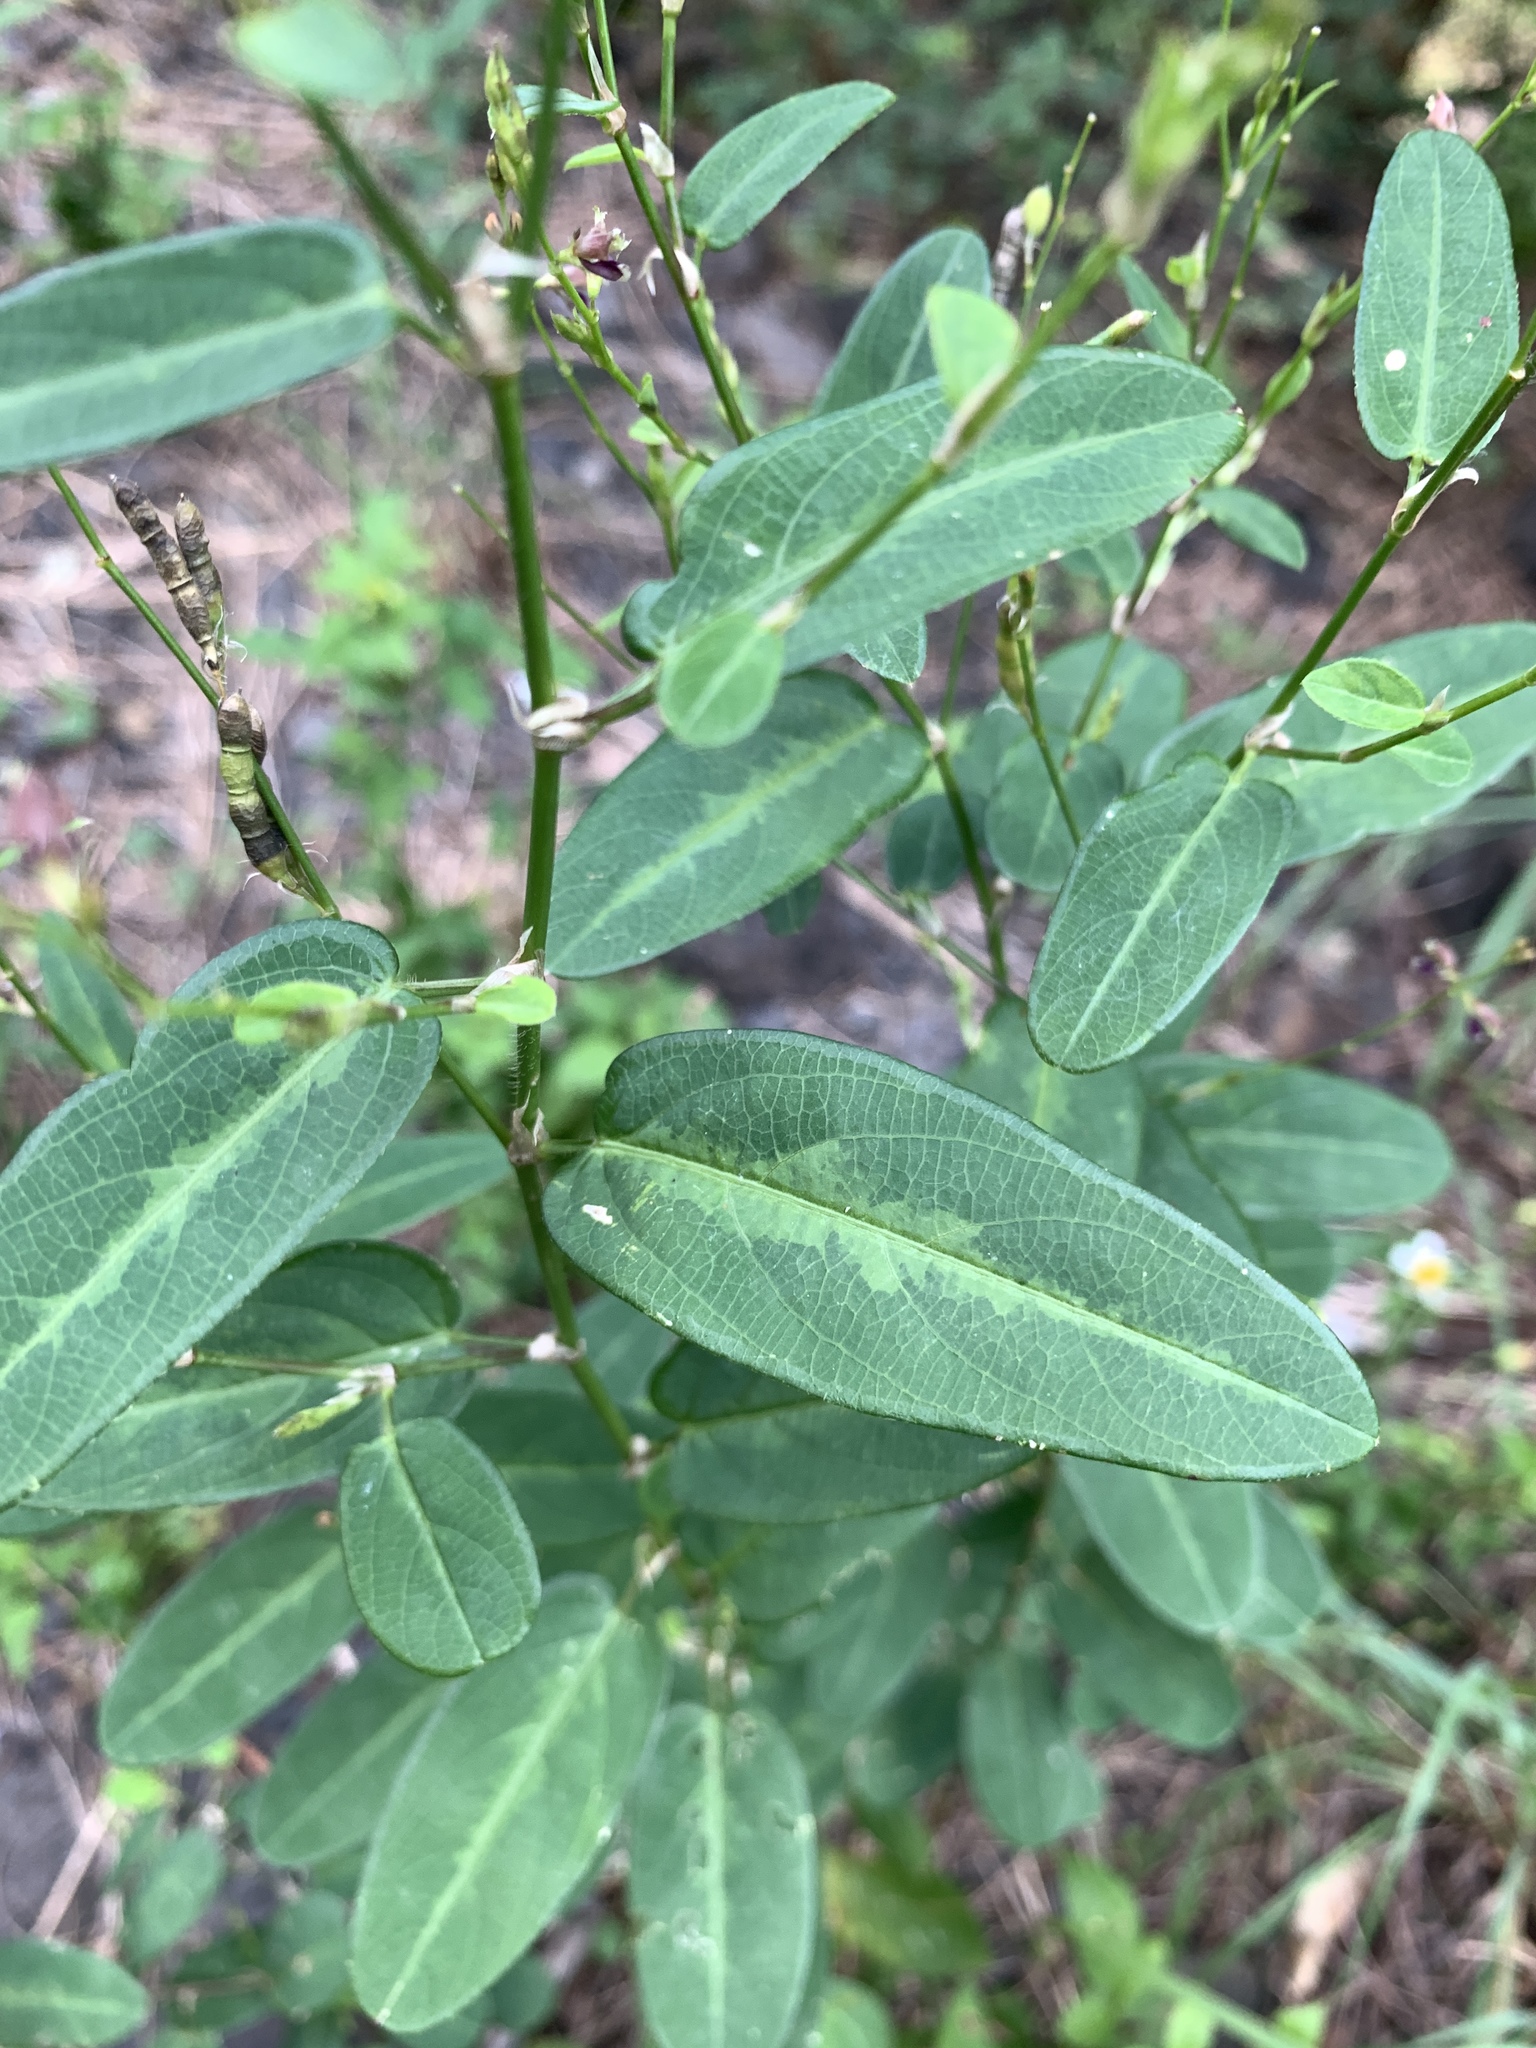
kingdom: Plantae
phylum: Tracheophyta
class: Magnoliopsida
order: Fabales
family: Fabaceae
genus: Alysicarpus
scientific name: Alysicarpus ovalifolius
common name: Alyce clover
